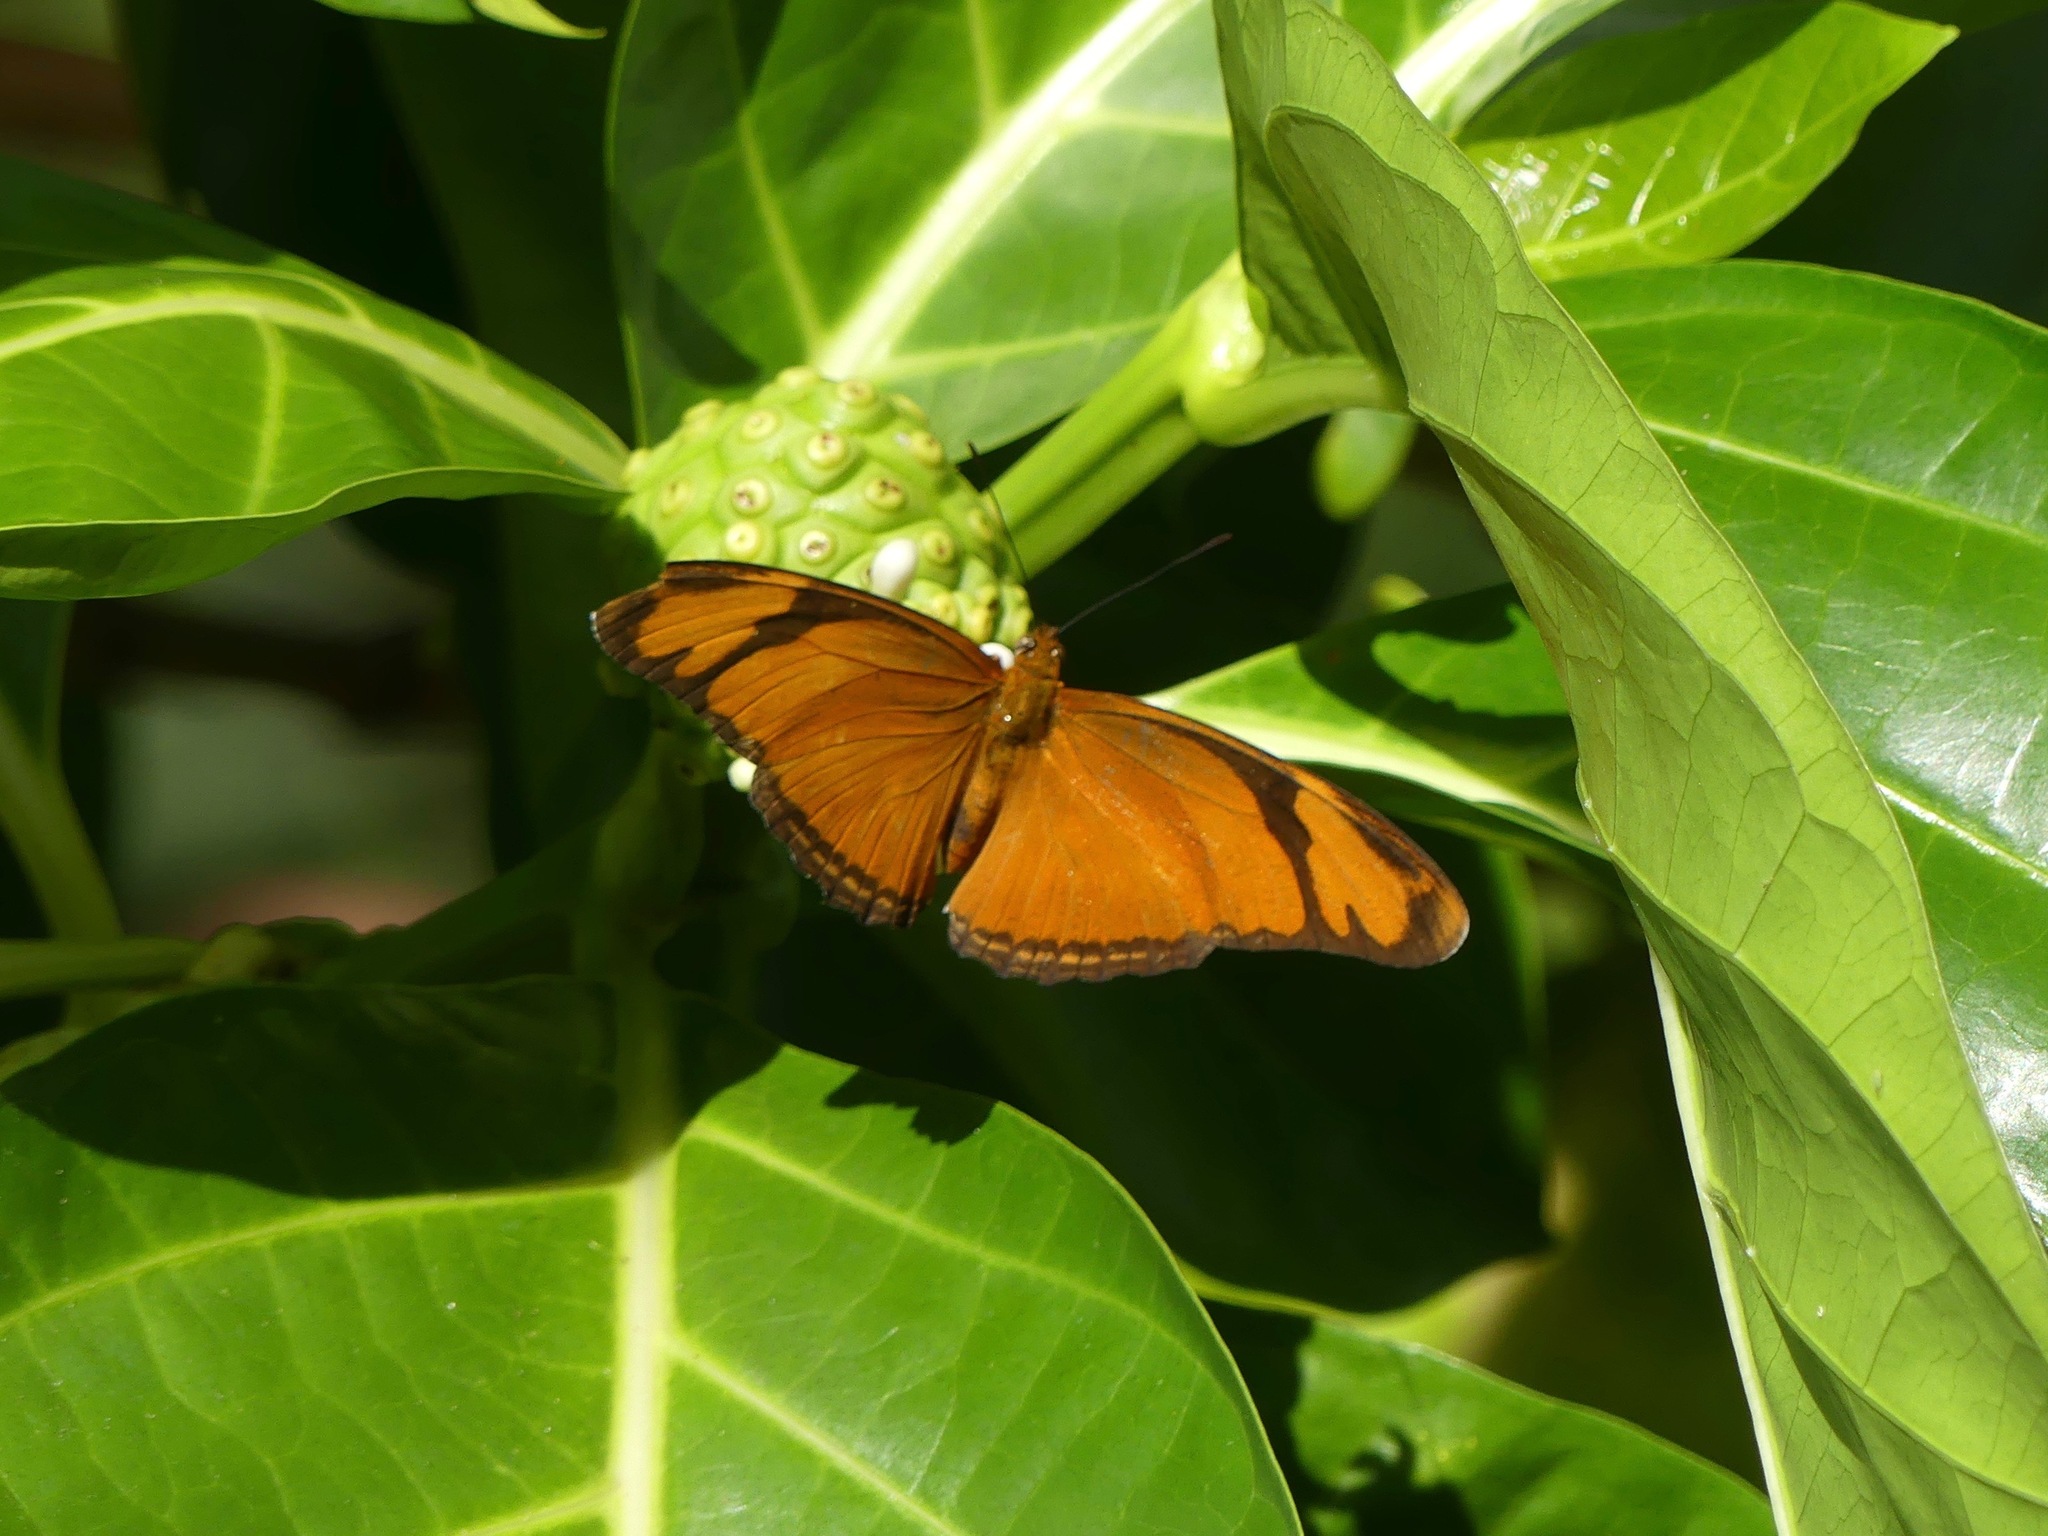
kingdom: Animalia
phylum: Arthropoda
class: Insecta
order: Lepidoptera
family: Nymphalidae
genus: Dryas
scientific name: Dryas iulia
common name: Flambeau
